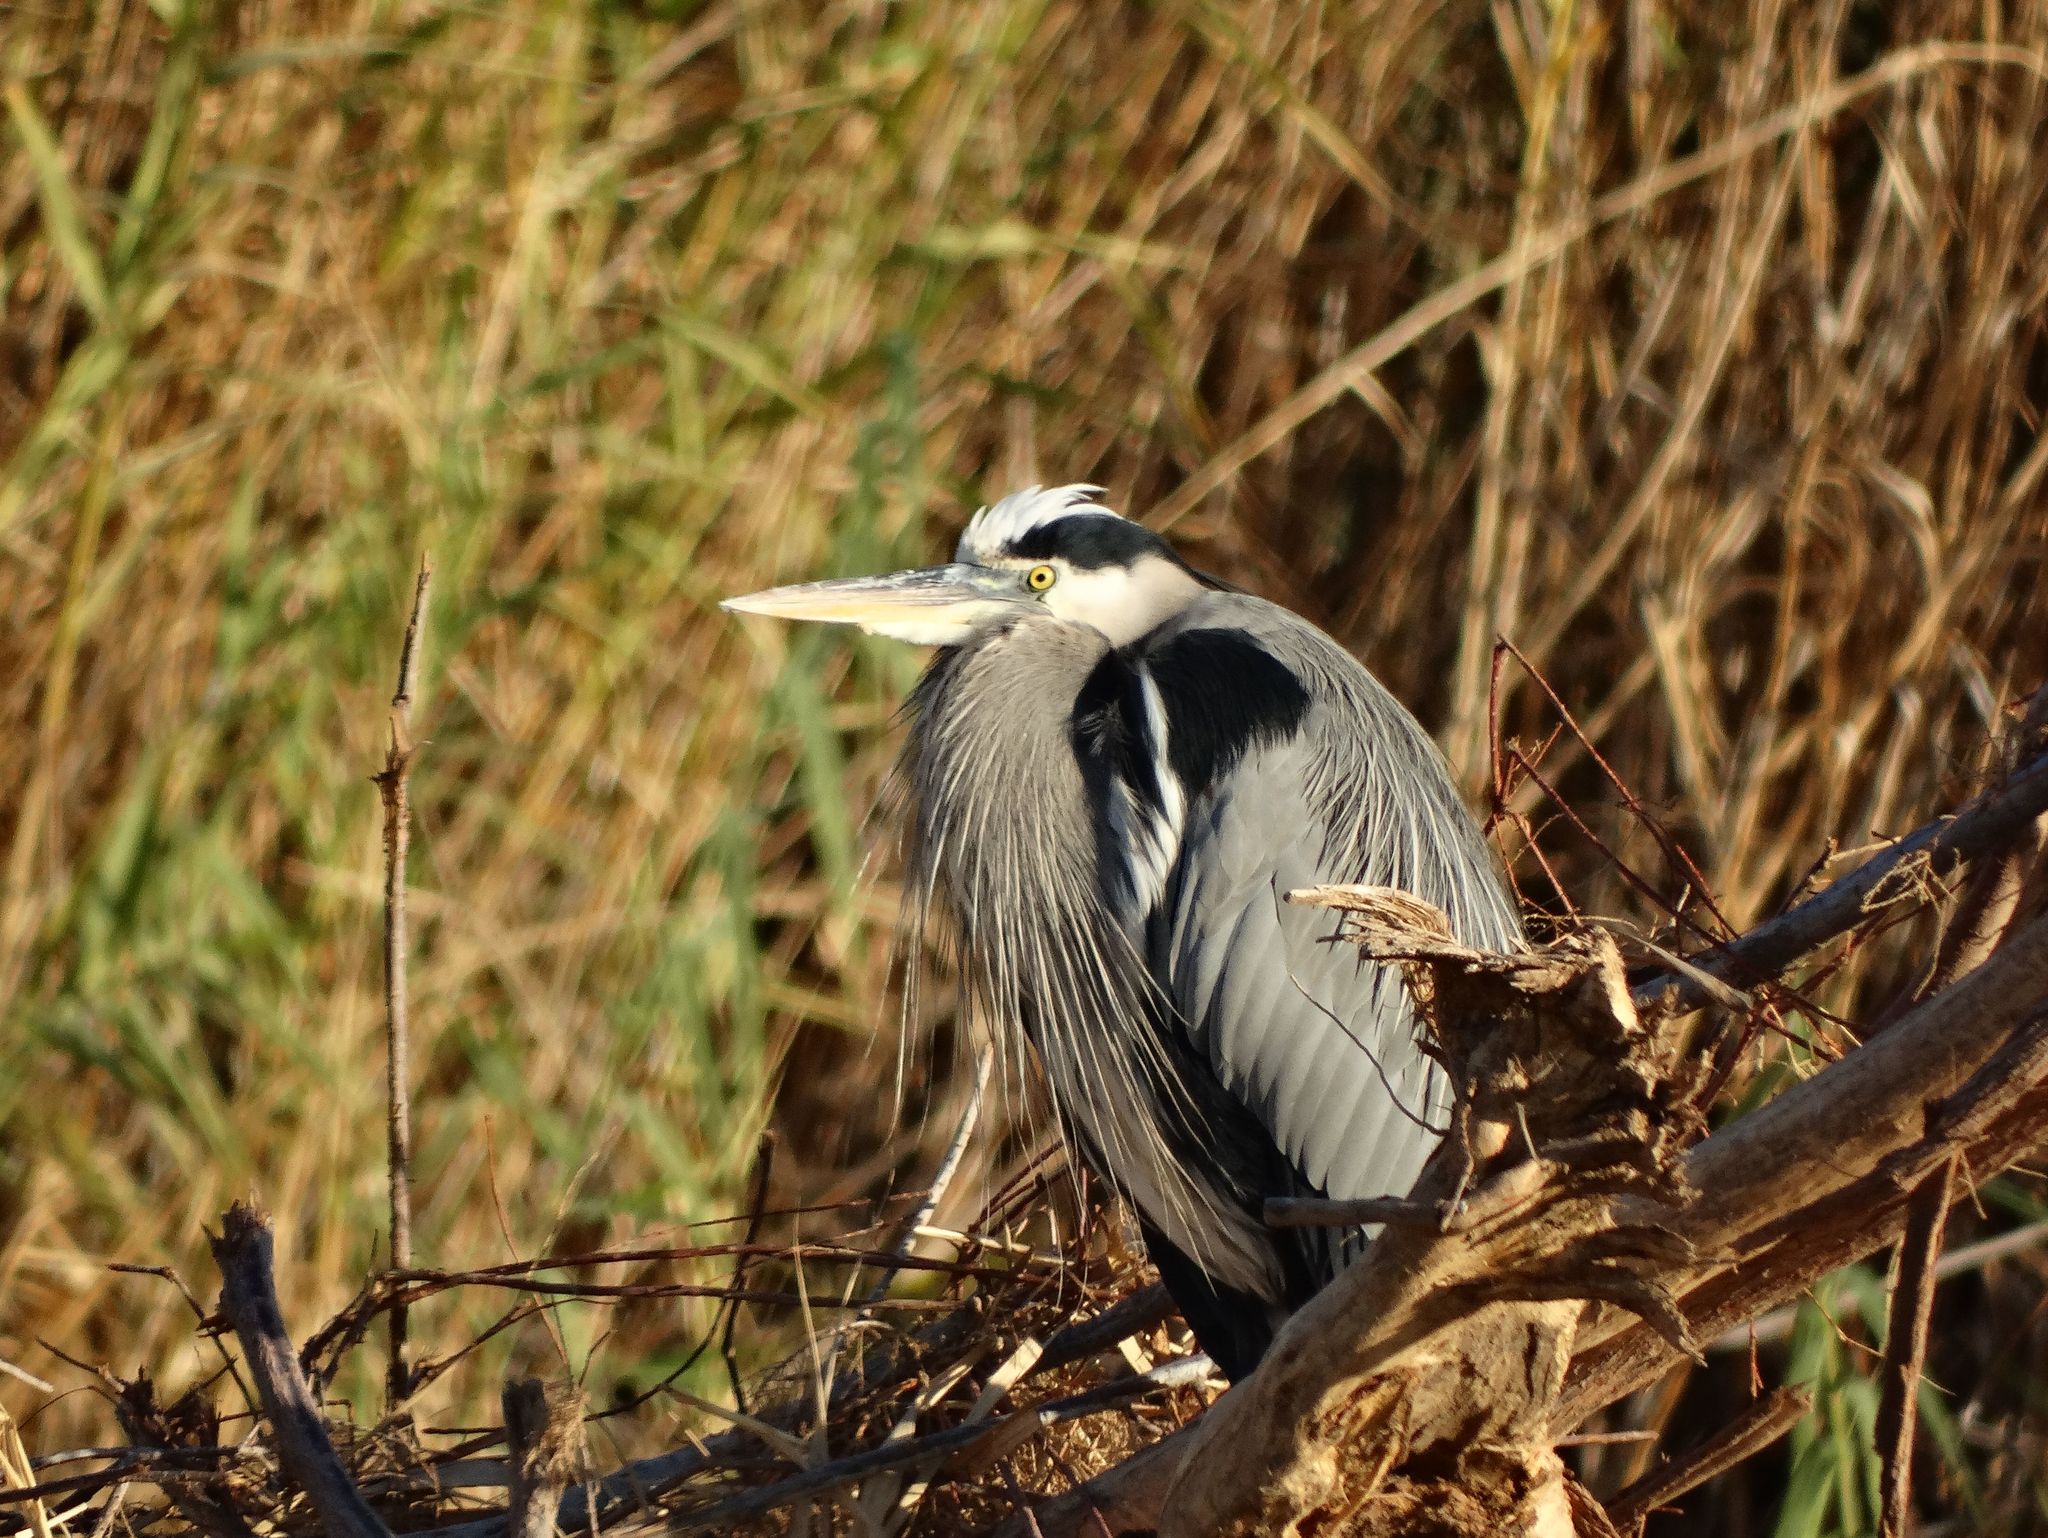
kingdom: Animalia
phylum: Chordata
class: Aves
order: Pelecaniformes
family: Ardeidae
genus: Ardea
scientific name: Ardea herodias
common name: Great blue heron
